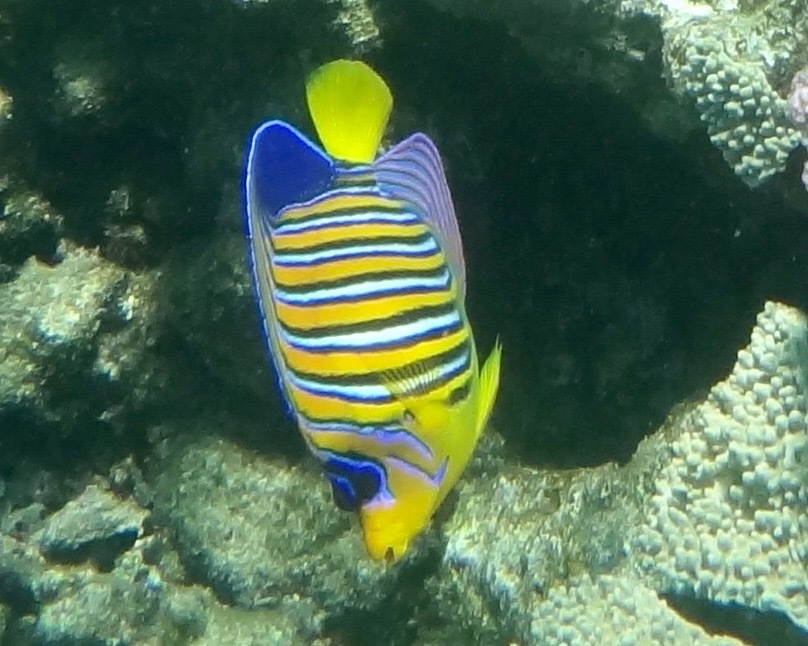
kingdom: Animalia
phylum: Chordata
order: Perciformes
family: Pomacanthidae
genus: Pygoplites
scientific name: Pygoplites diacanthus
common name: Regal angelfish
